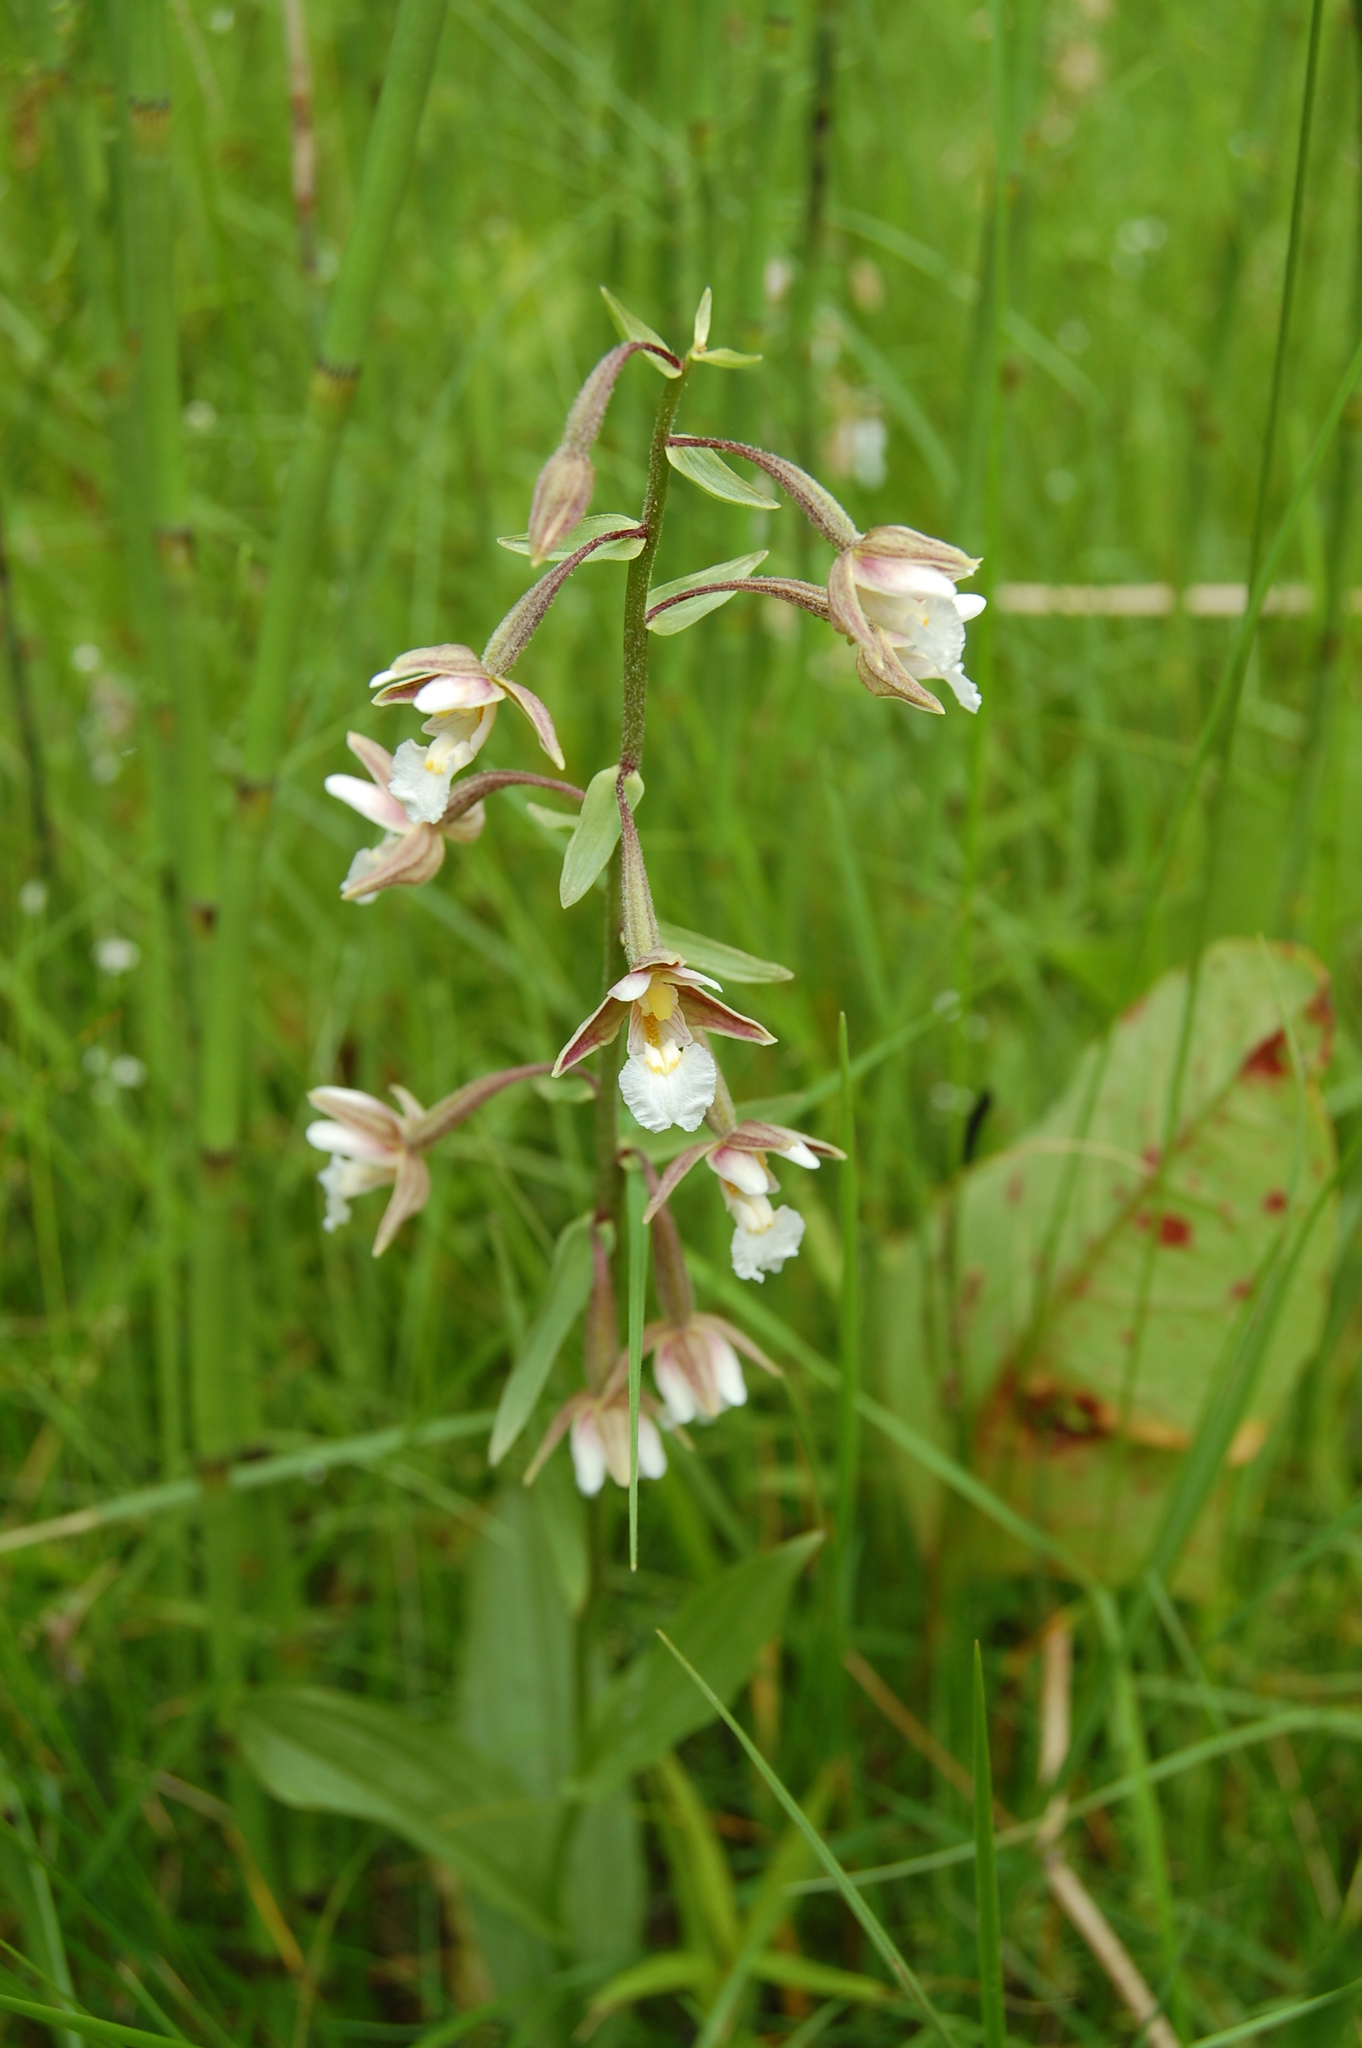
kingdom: Plantae
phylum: Tracheophyta
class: Liliopsida
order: Asparagales
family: Orchidaceae
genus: Epipactis
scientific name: Epipactis palustris
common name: Marsh helleborine
